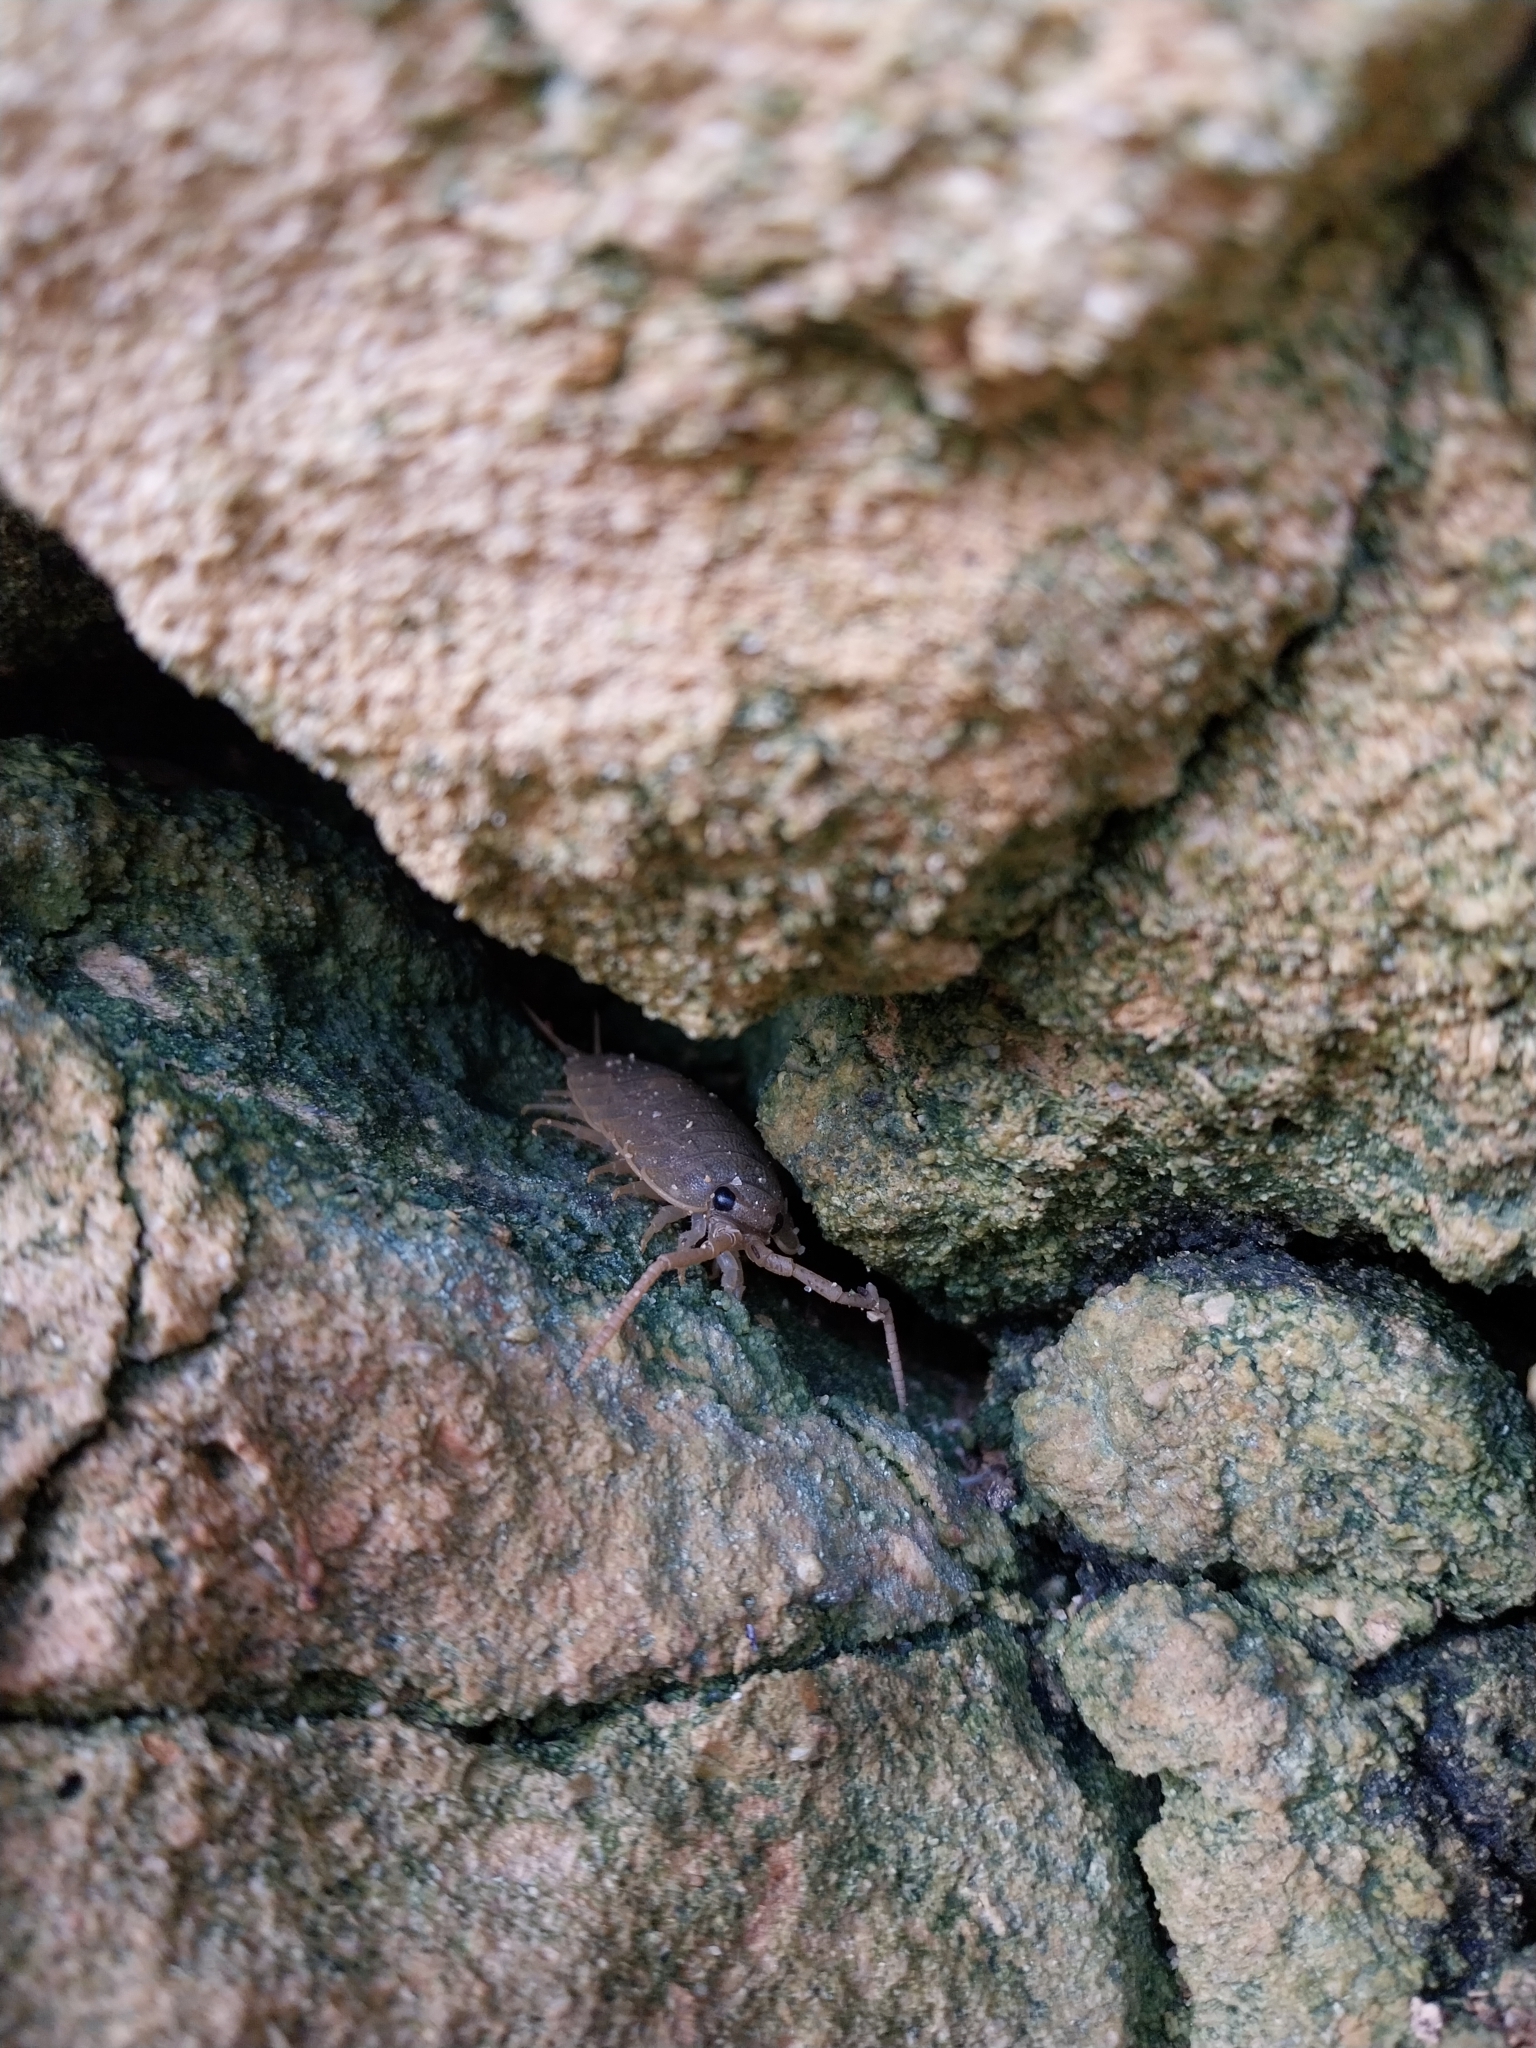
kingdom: Animalia
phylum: Arthropoda
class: Malacostraca
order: Isopoda
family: Ligiidae
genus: Ligia
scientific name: Ligia oceanica
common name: Sea slater
